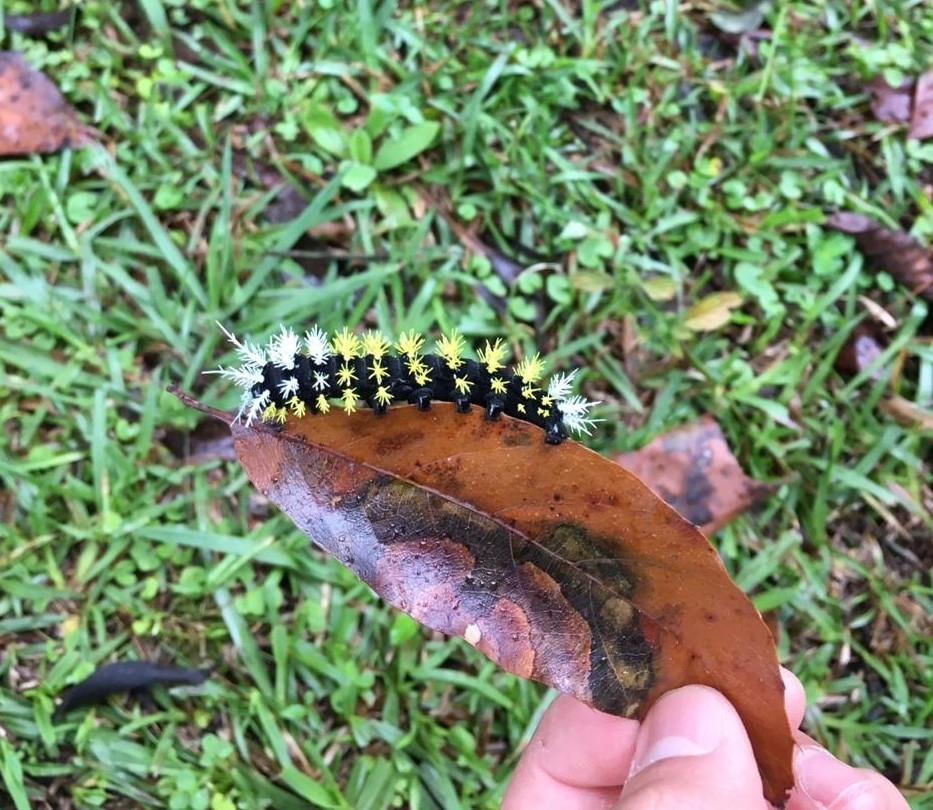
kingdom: Animalia
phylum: Arthropoda
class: Insecta
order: Lepidoptera
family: Saturniidae
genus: Leucanella
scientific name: Leucanella memusae
